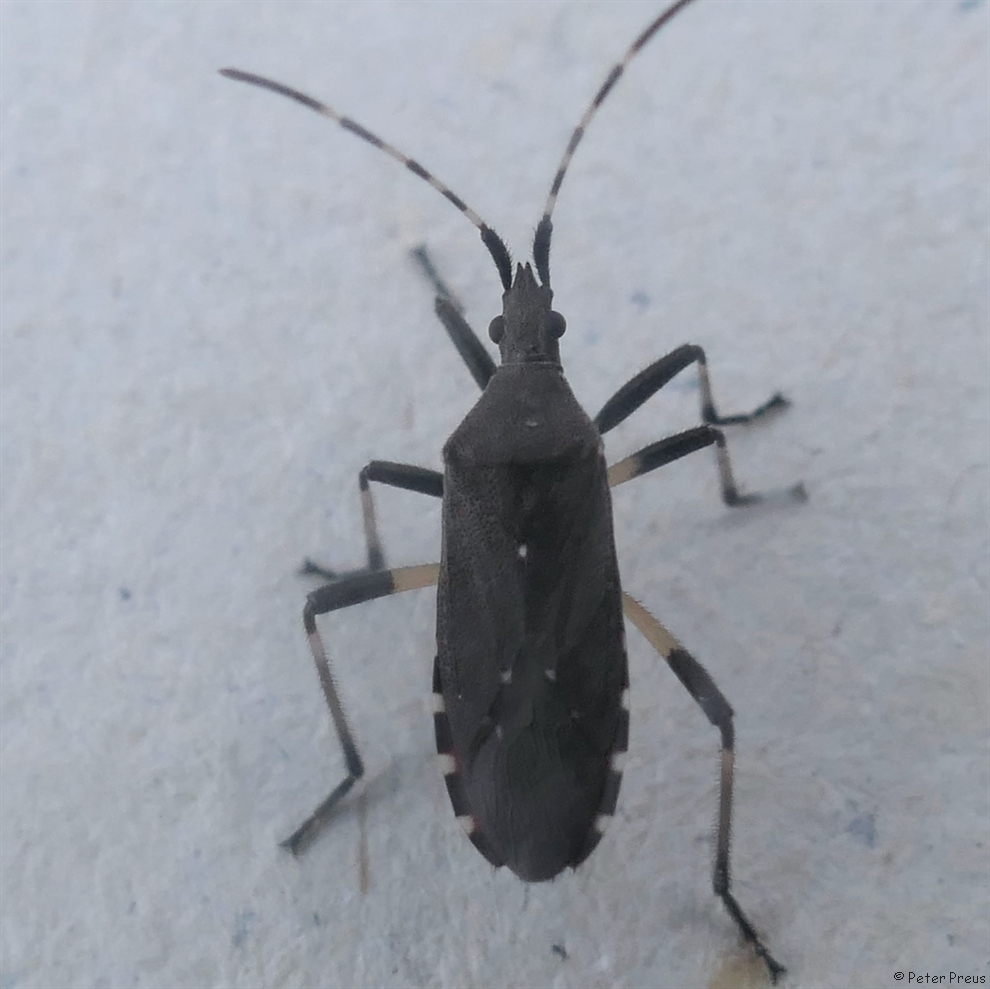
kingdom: Animalia
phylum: Arthropoda
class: Insecta
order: Hemiptera
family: Stenocephalidae
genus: Dicranocephalus
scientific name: Dicranocephalus agilis
